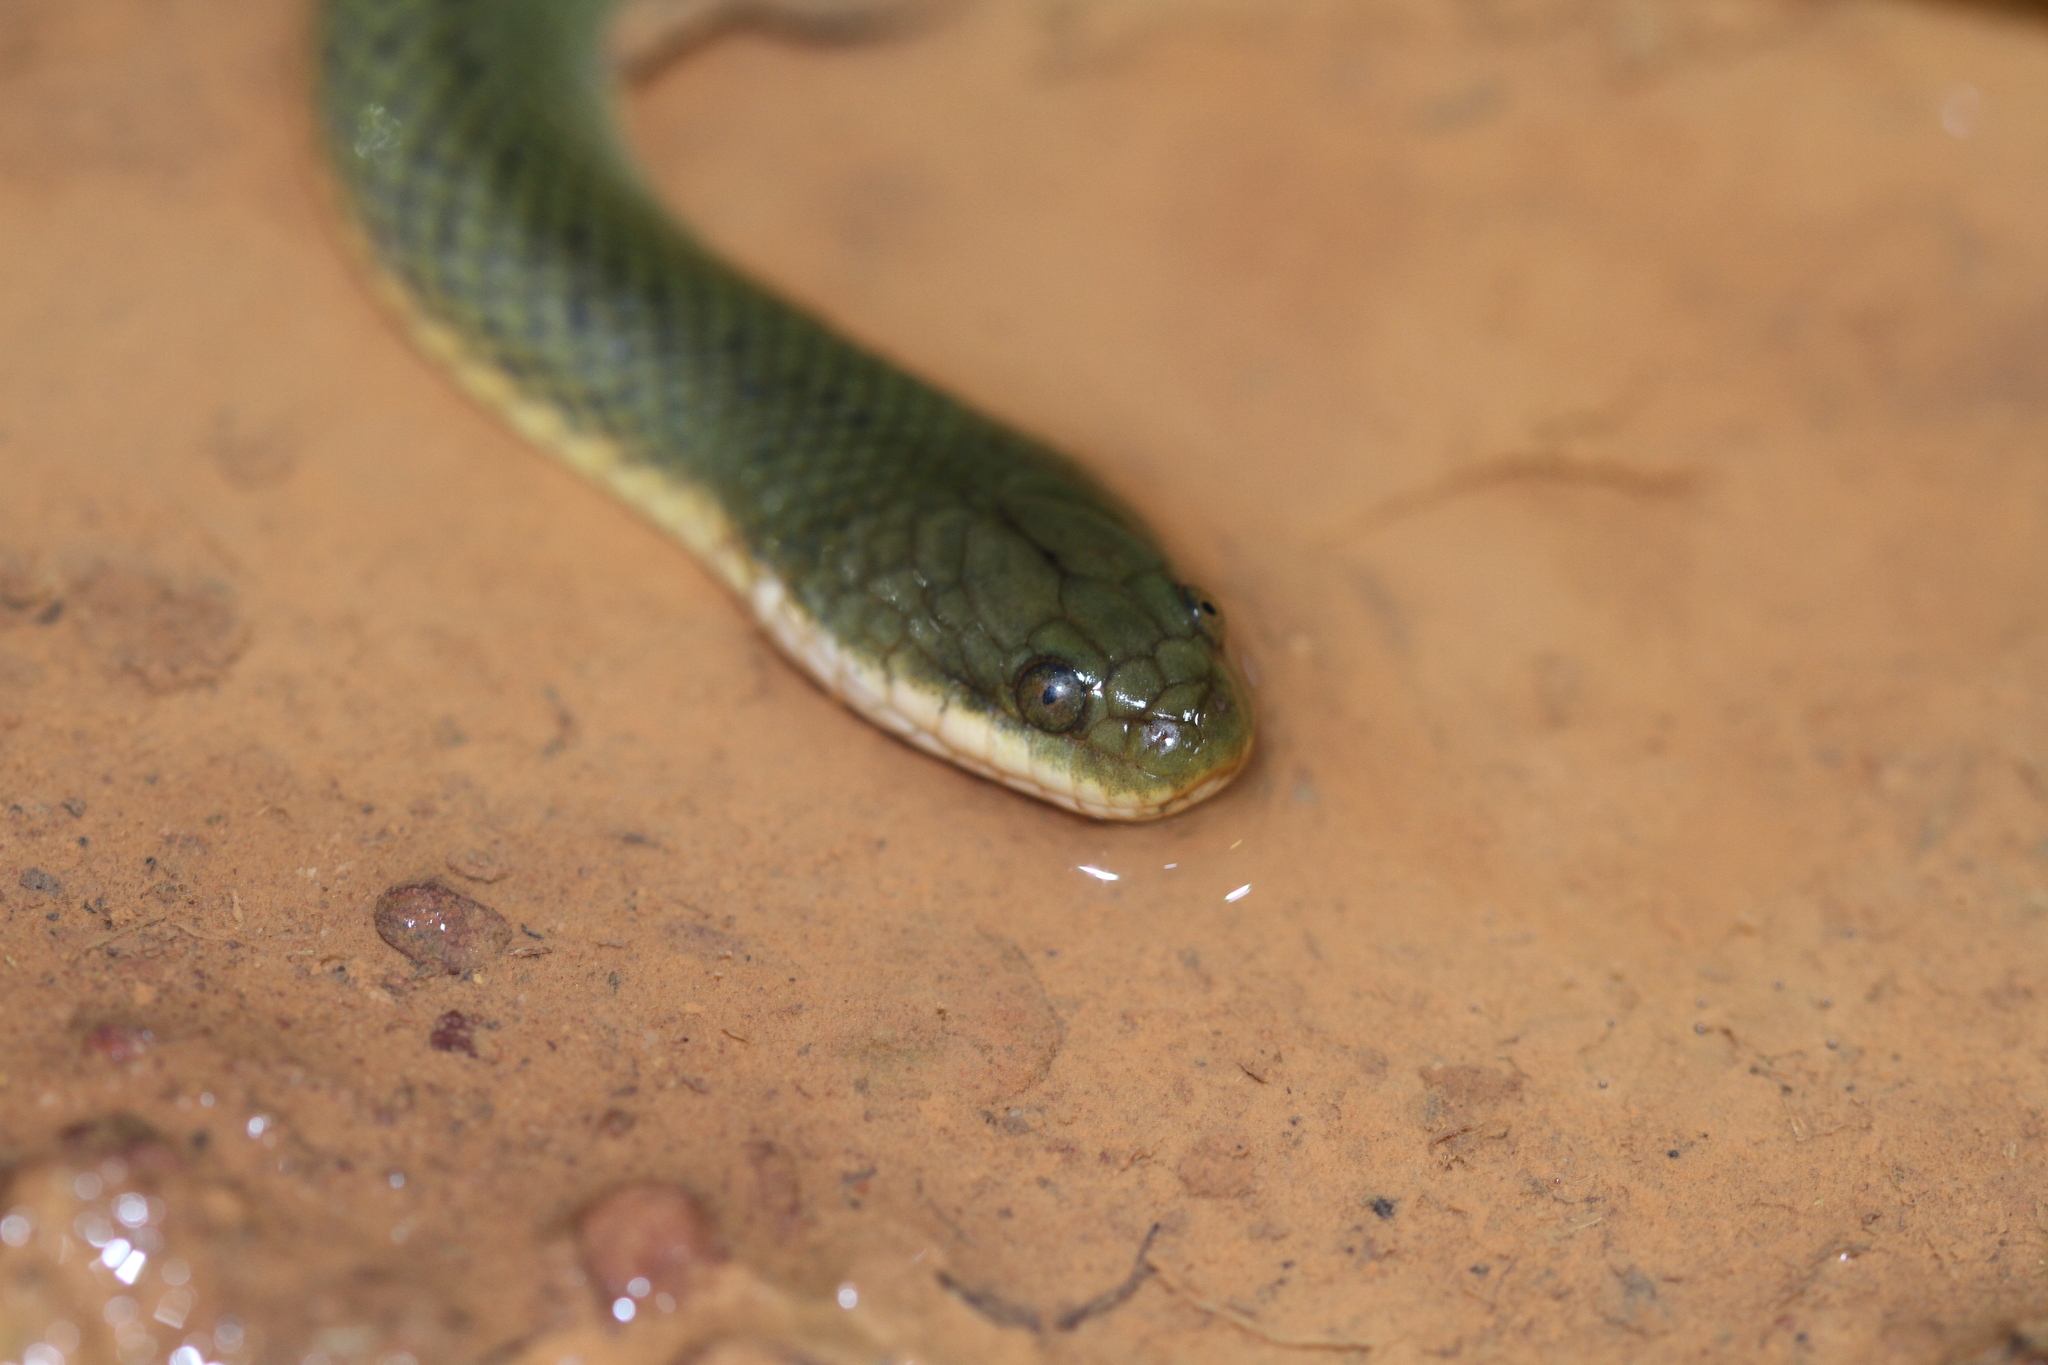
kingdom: Animalia
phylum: Chordata
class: Squamata
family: Homalopsidae
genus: Hypsiscopus
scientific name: Hypsiscopus plumbea
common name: Rice paddy snake
